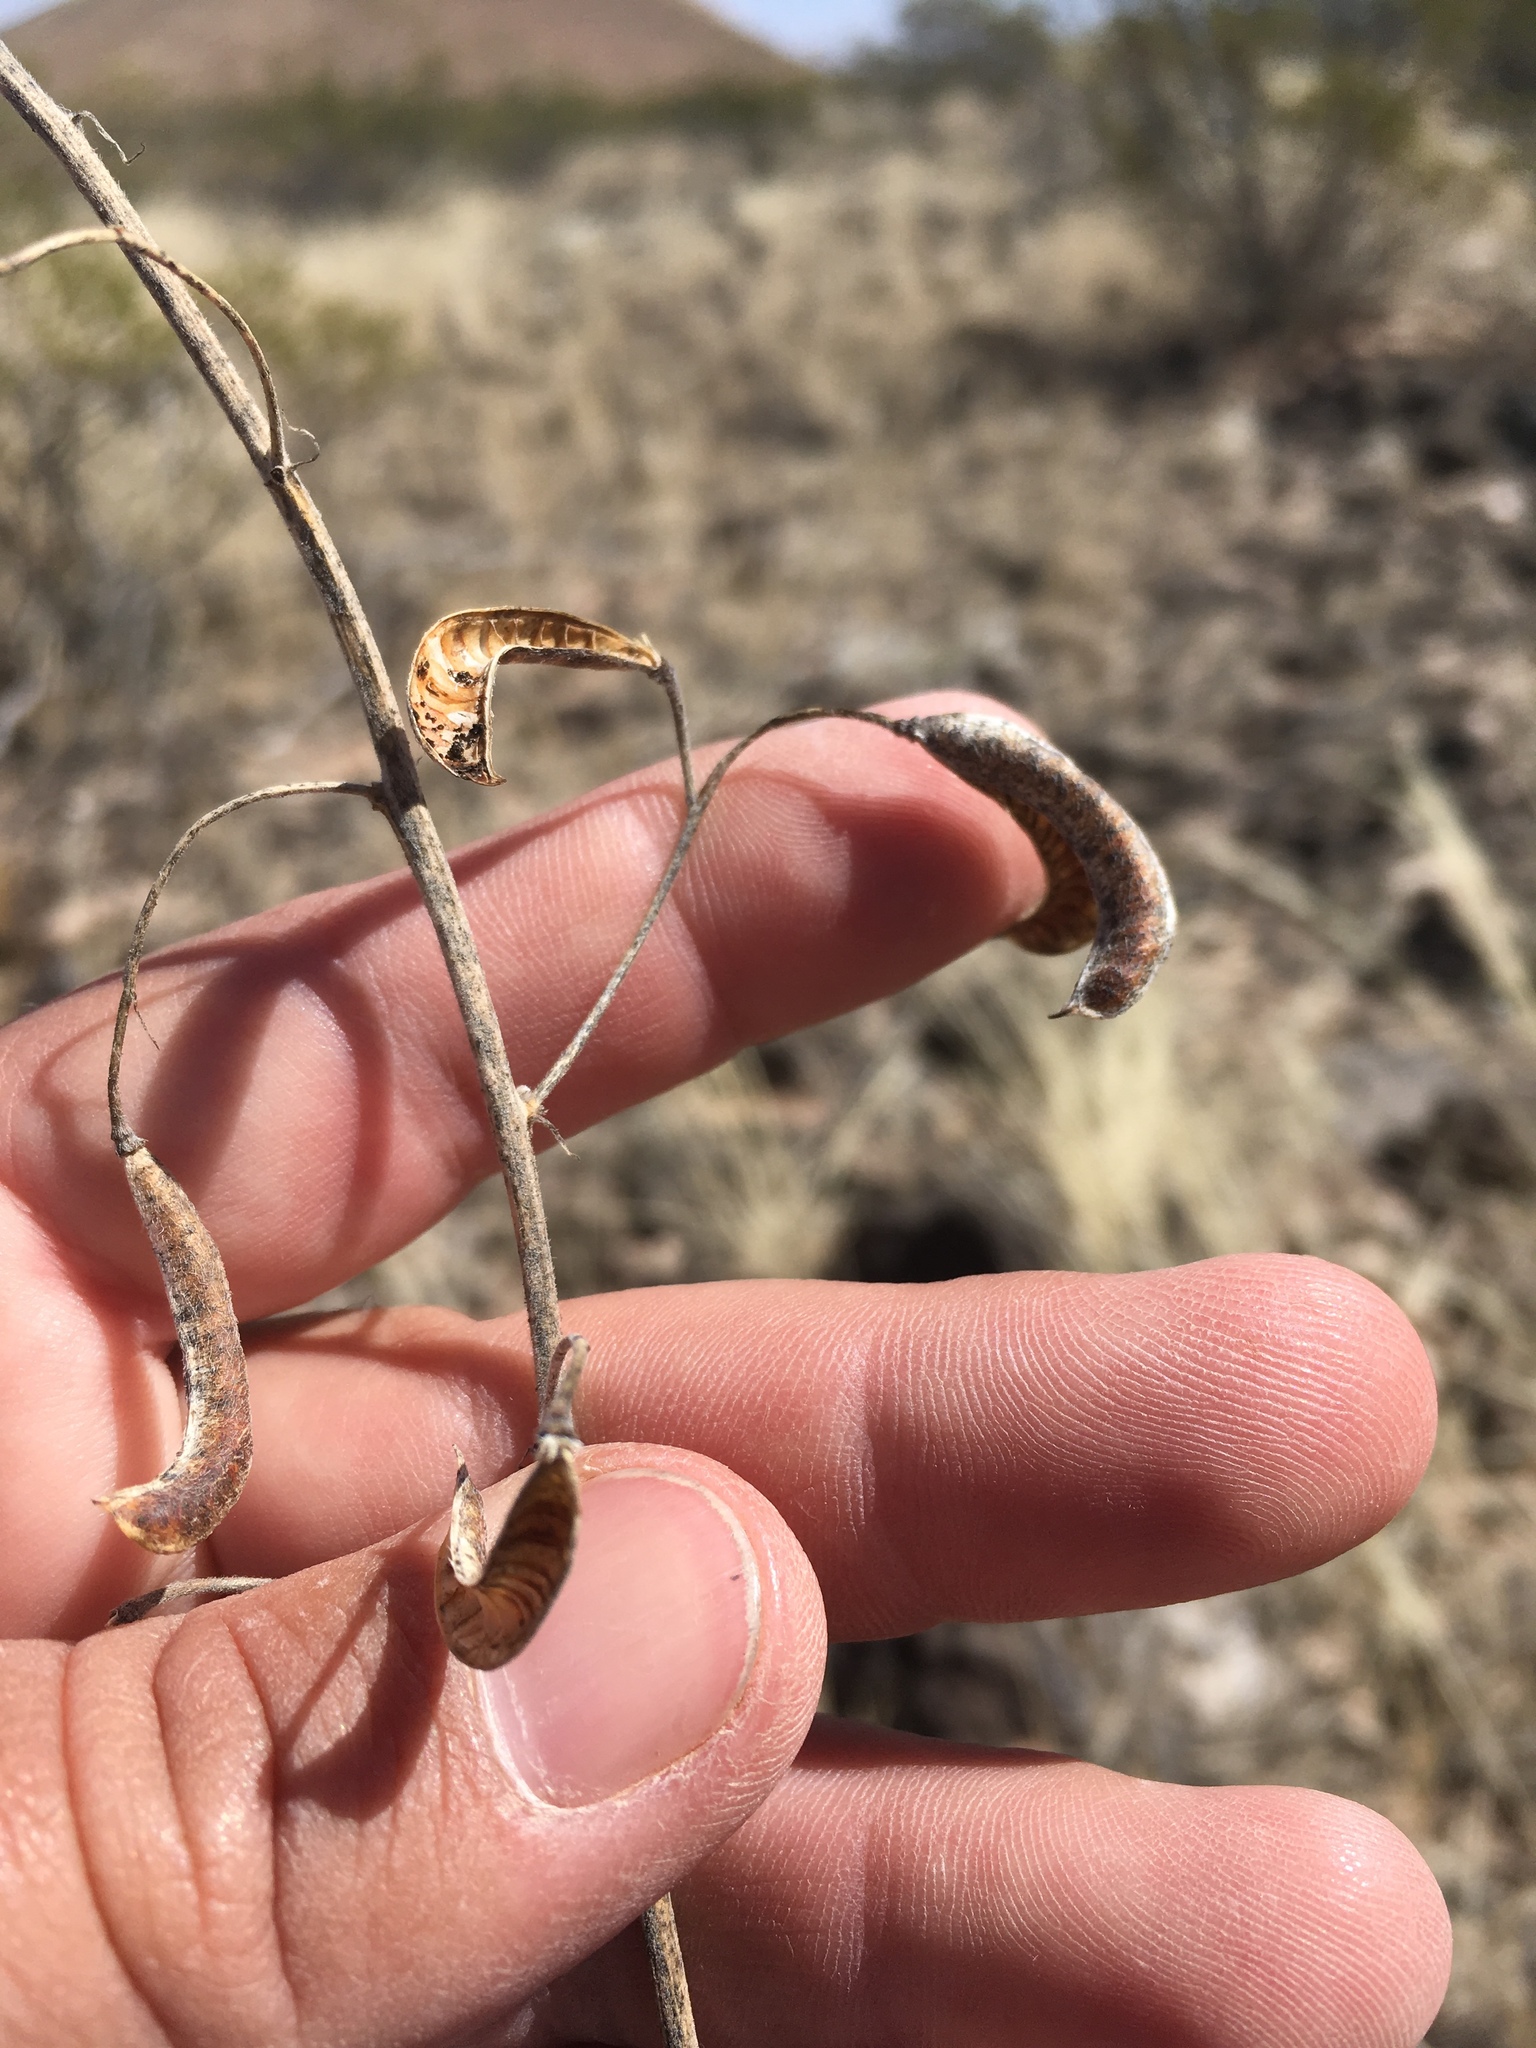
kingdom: Plantae
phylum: Tracheophyta
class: Magnoliopsida
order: Fabales
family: Fabaceae
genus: Senna
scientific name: Senna bauhinioides
